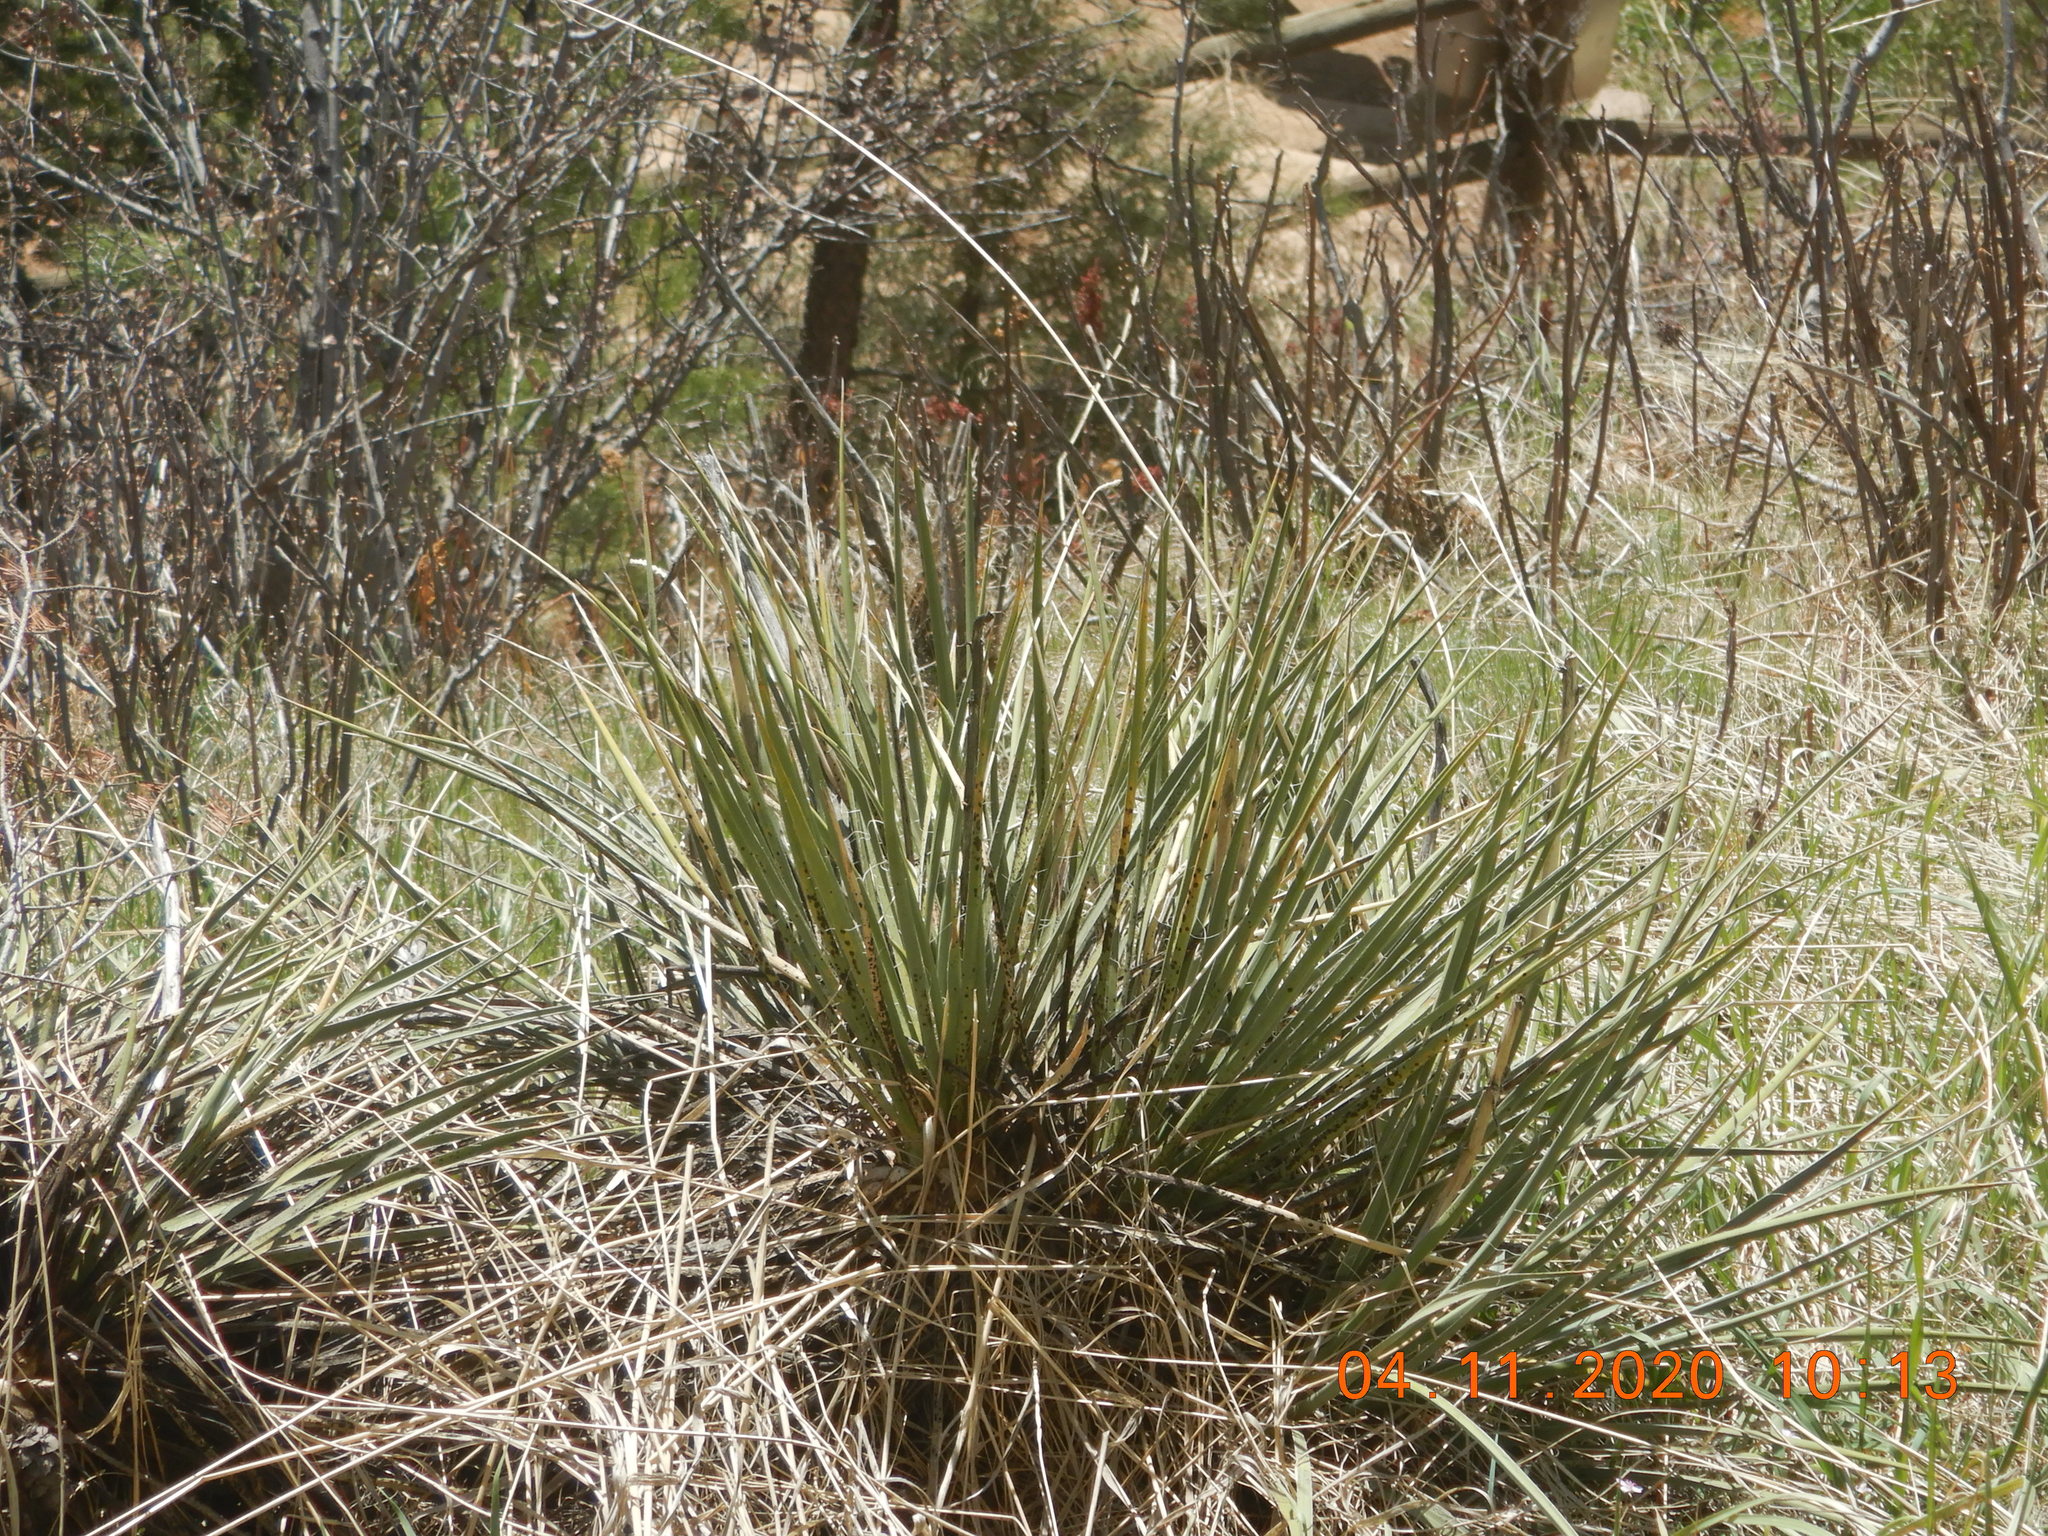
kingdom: Plantae
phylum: Tracheophyta
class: Liliopsida
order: Asparagales
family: Asparagaceae
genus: Yucca
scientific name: Yucca glauca
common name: Great plains yucca
